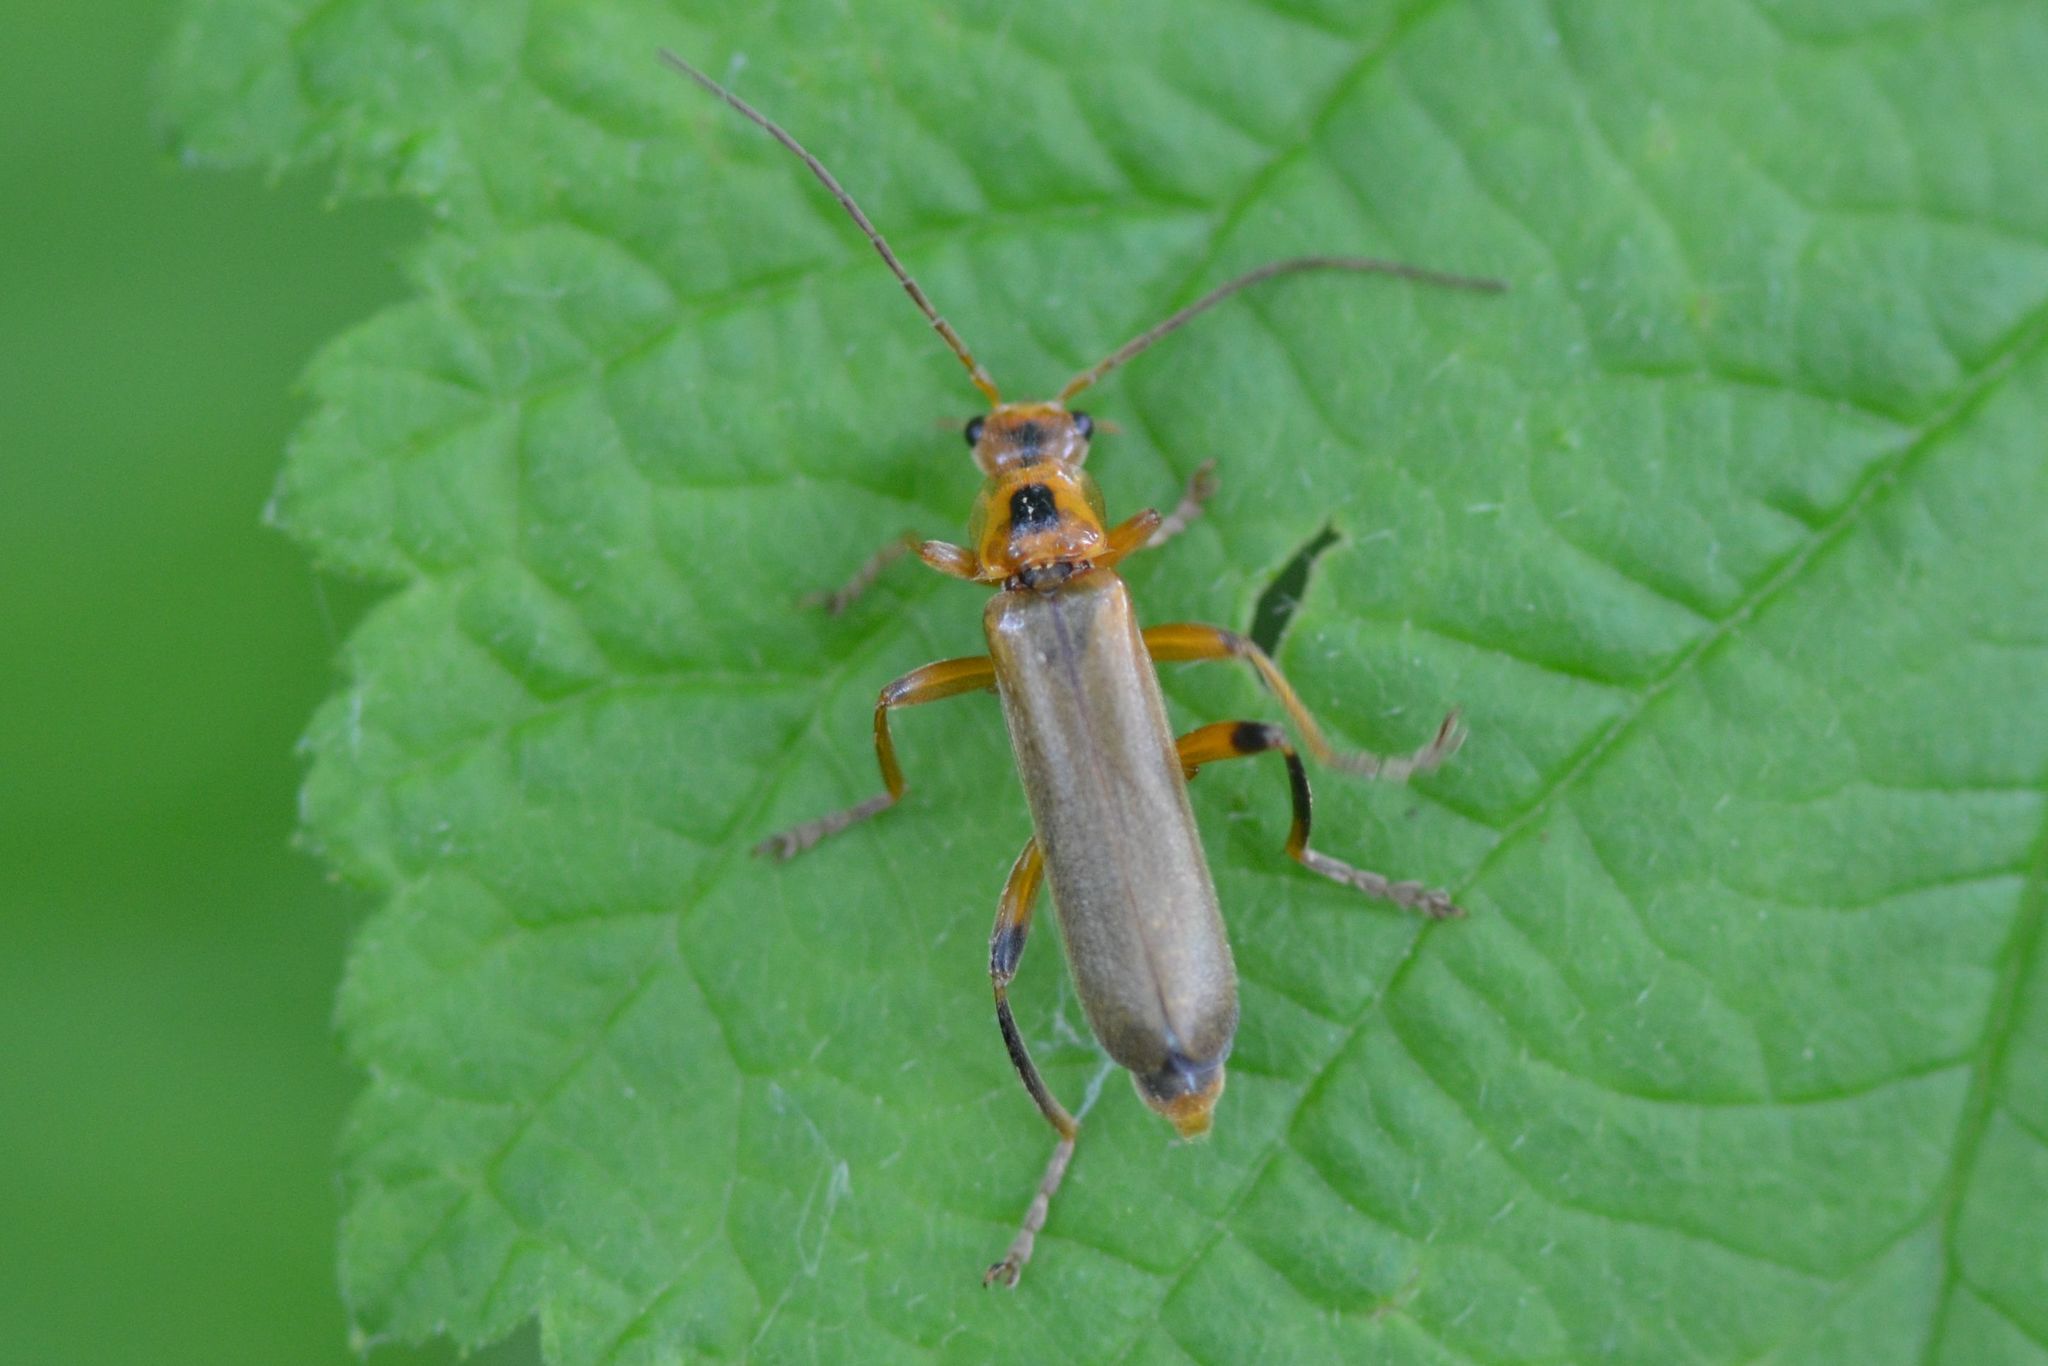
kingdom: Animalia
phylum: Arthropoda
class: Insecta
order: Coleoptera
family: Cantharidae
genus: Metacantharis
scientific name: Metacantharis discoidea
